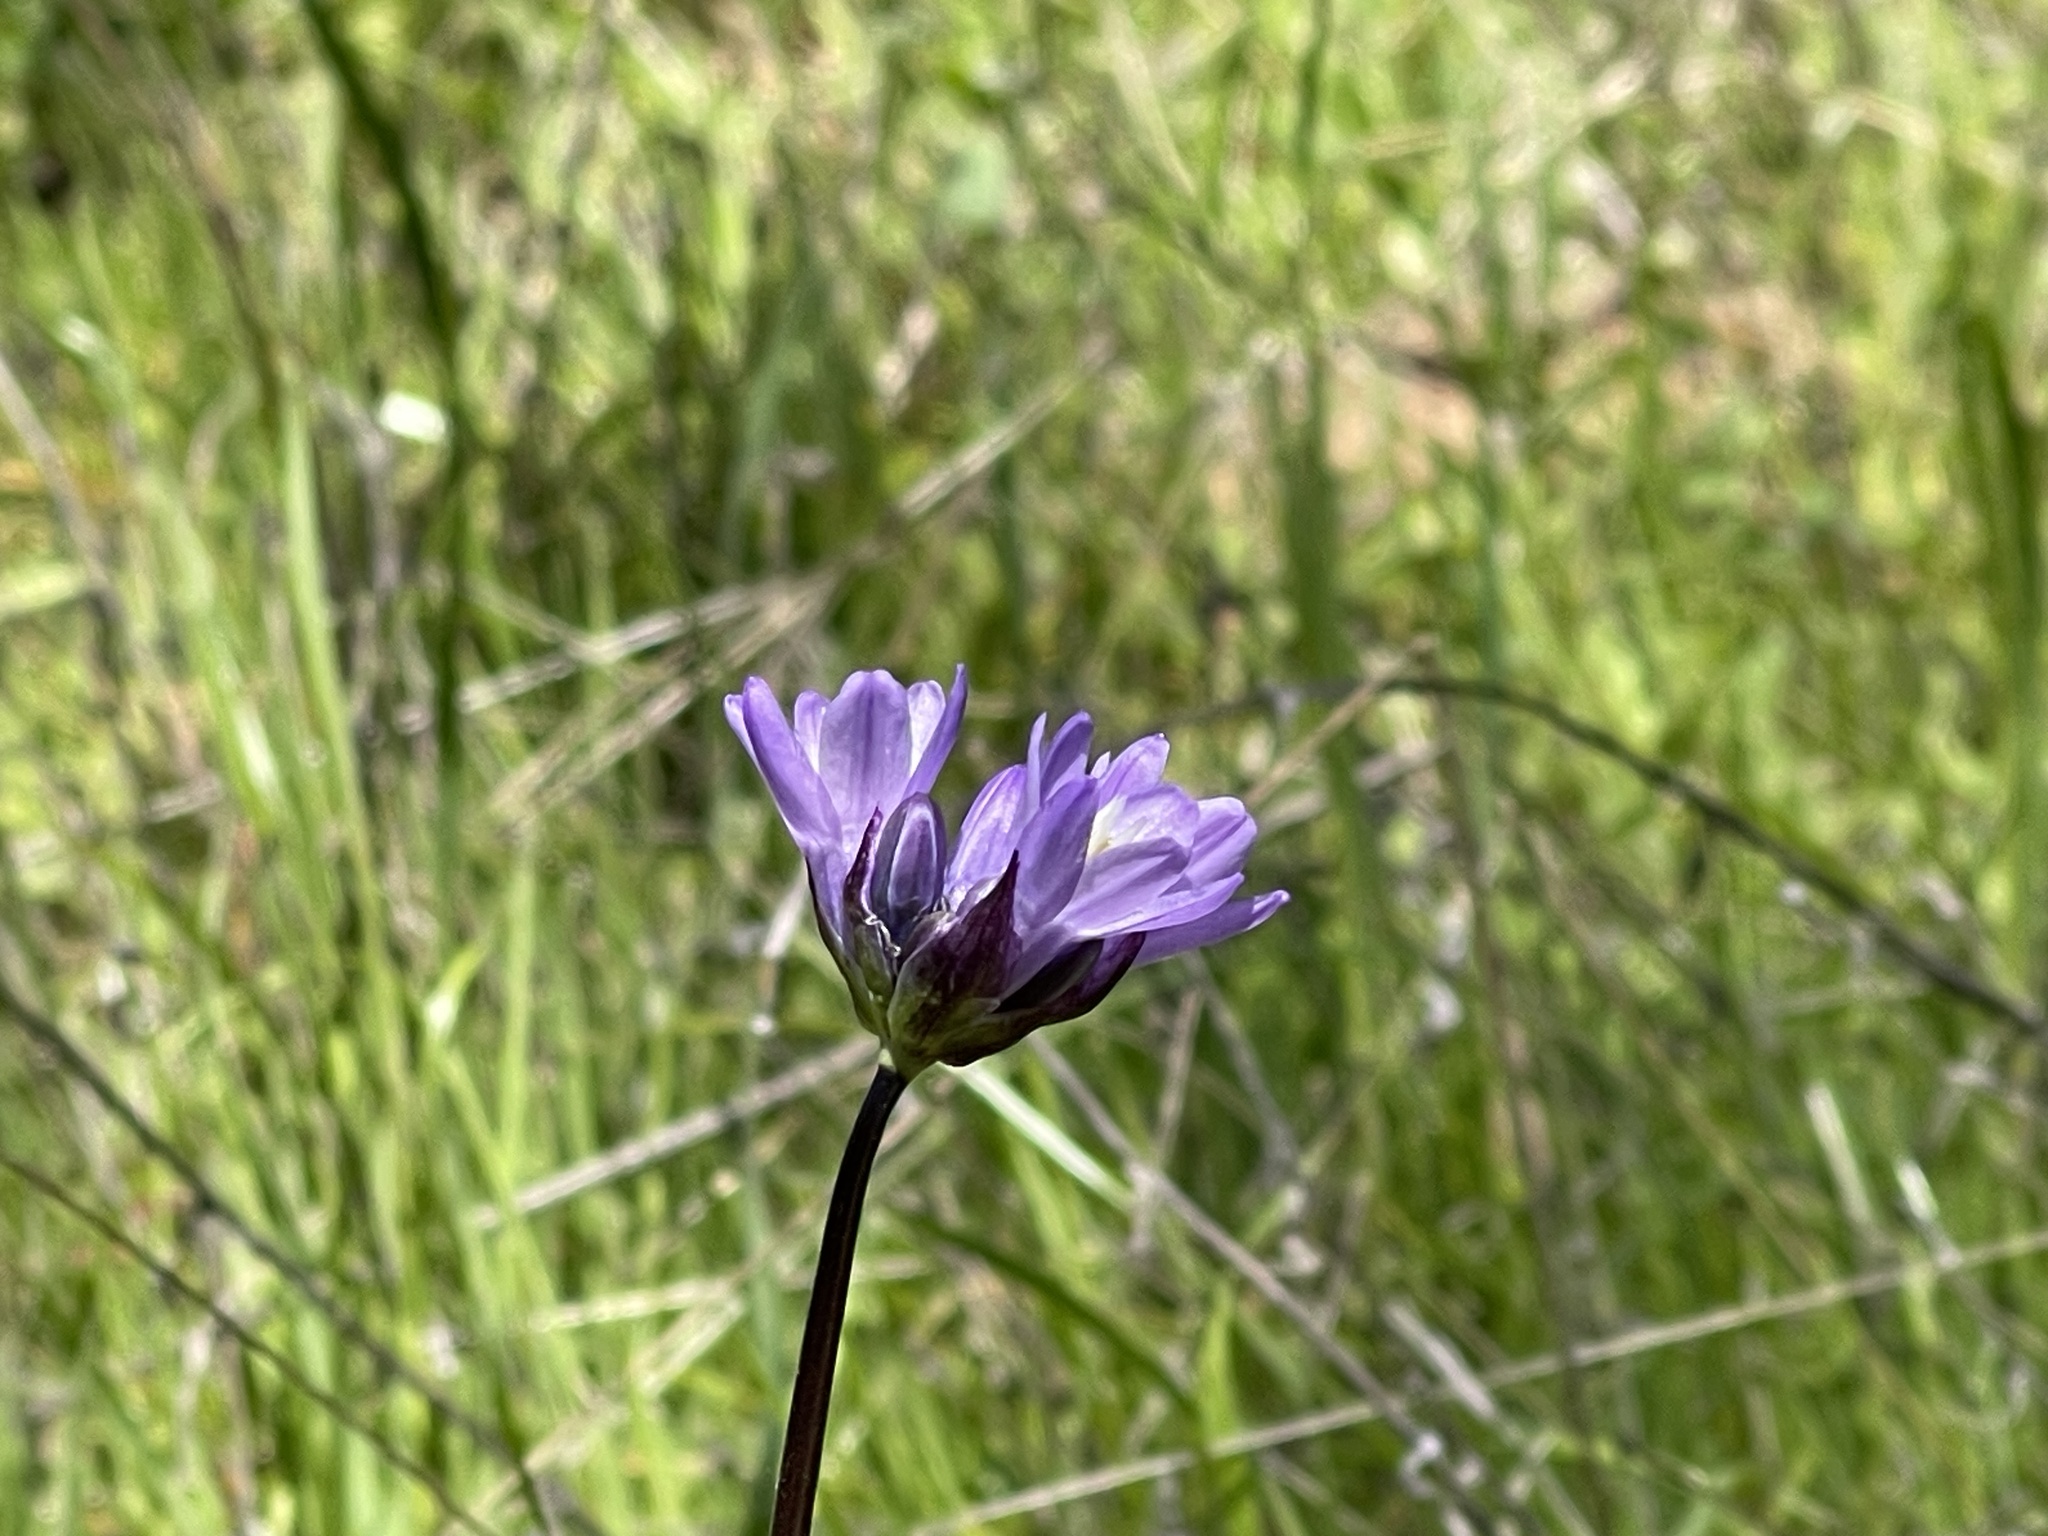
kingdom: Plantae
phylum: Tracheophyta
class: Liliopsida
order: Asparagales
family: Asparagaceae
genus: Dipterostemon
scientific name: Dipterostemon capitatus
